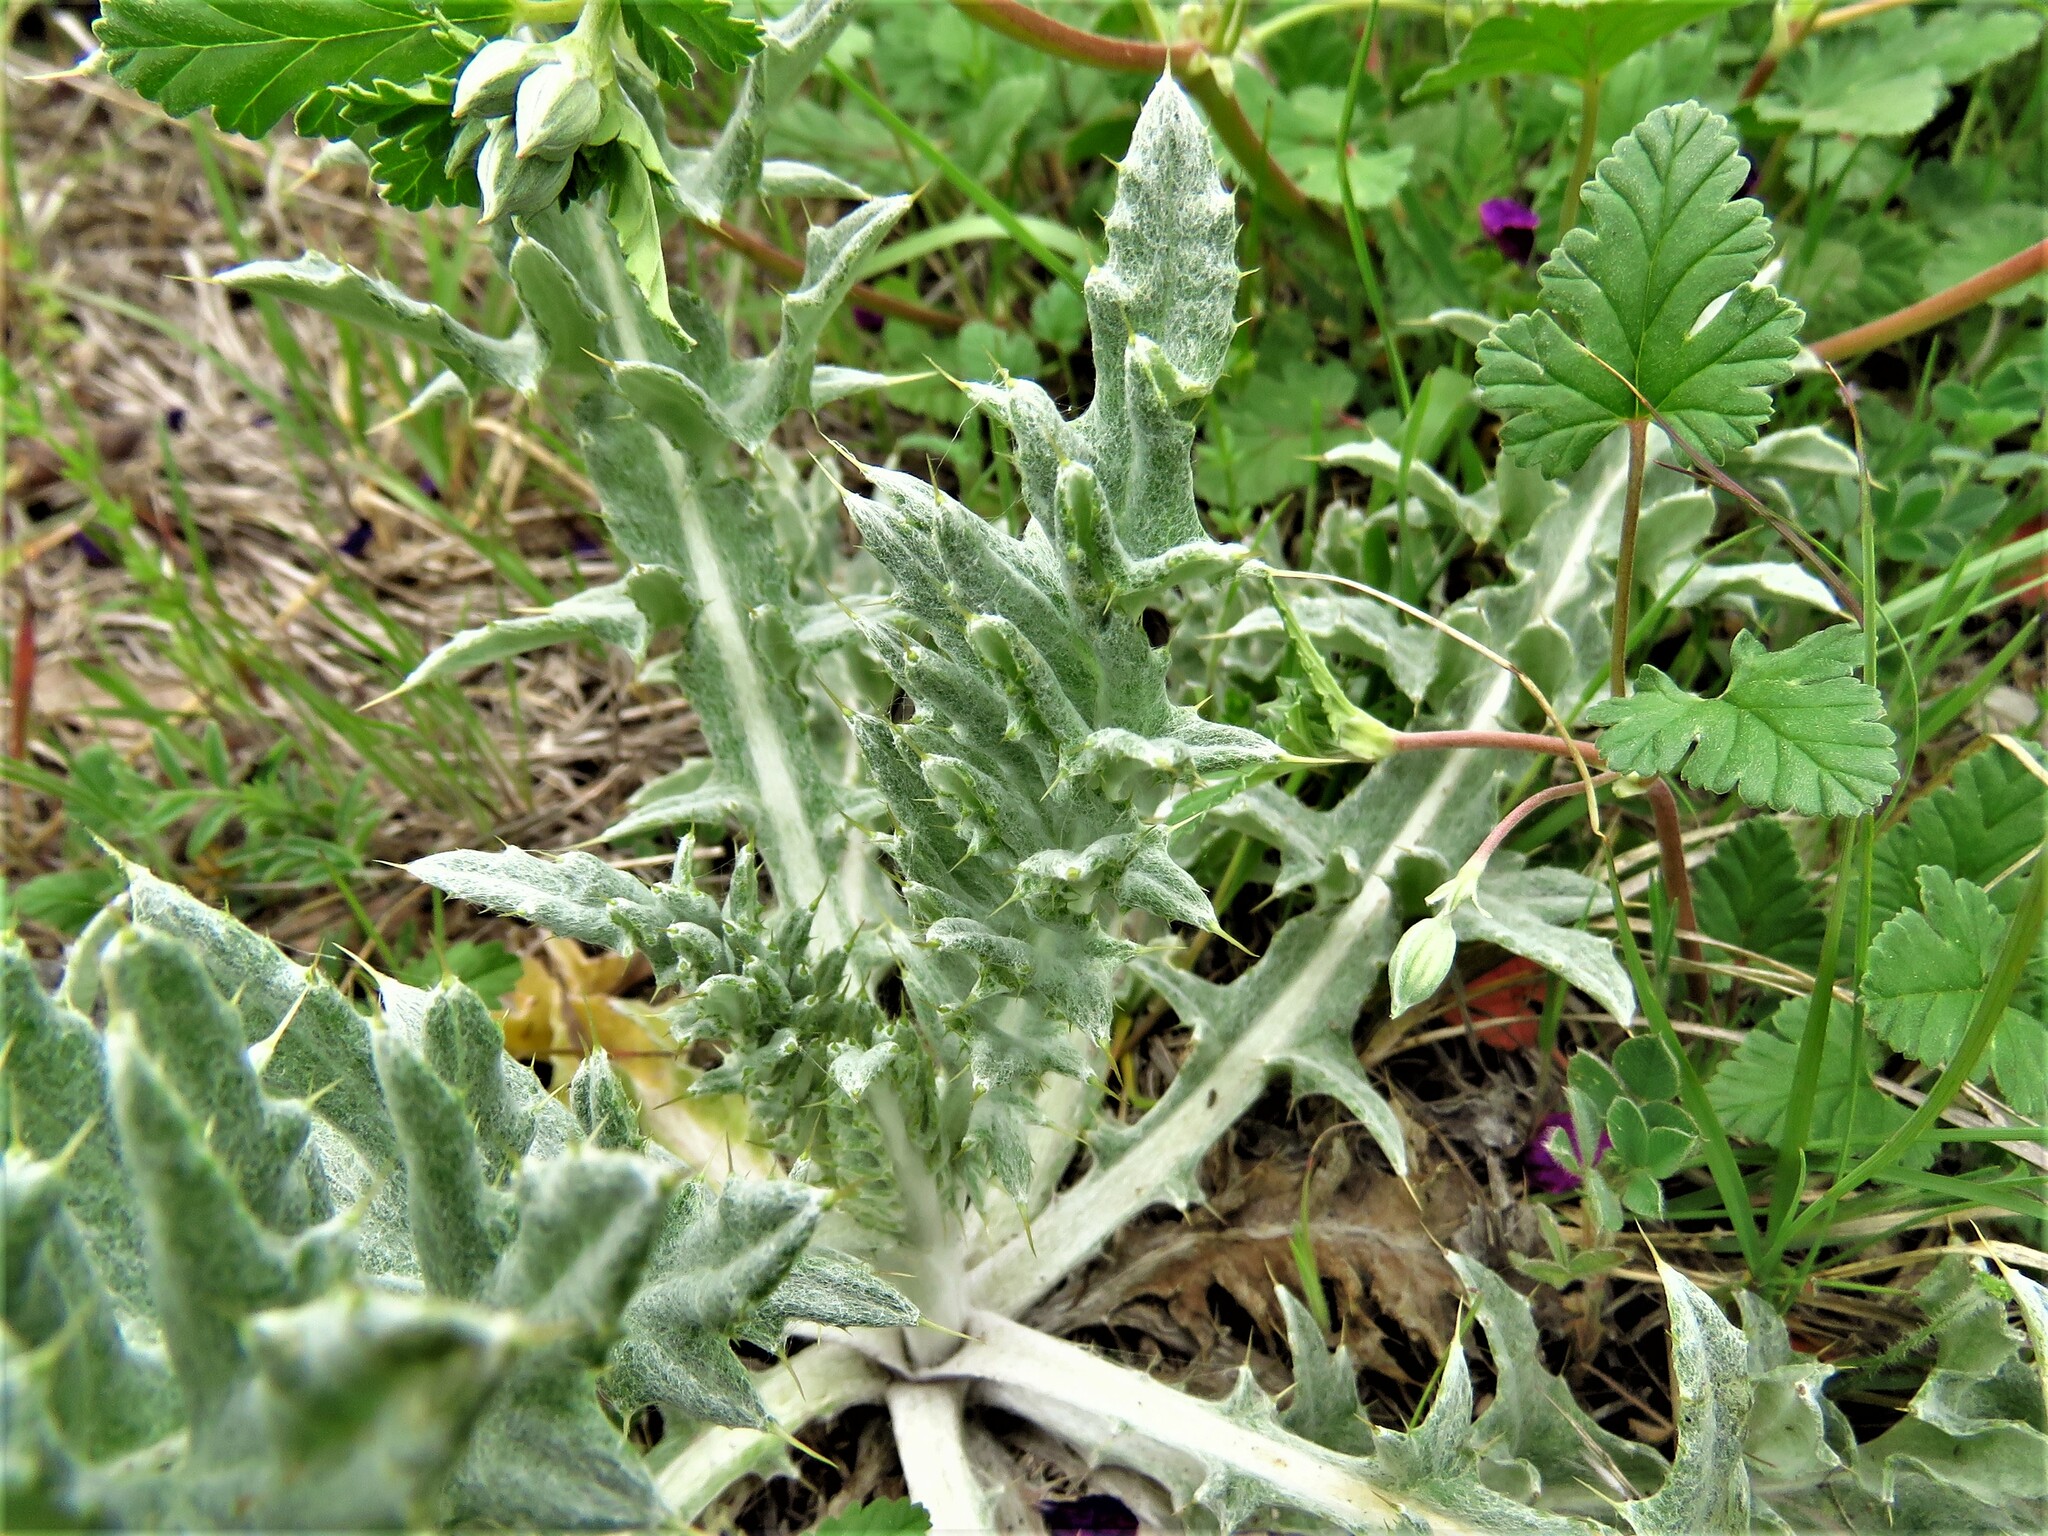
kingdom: Plantae
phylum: Tracheophyta
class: Magnoliopsida
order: Asterales
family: Asteraceae
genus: Cirsium
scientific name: Cirsium undulatum
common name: Pasture thistle
